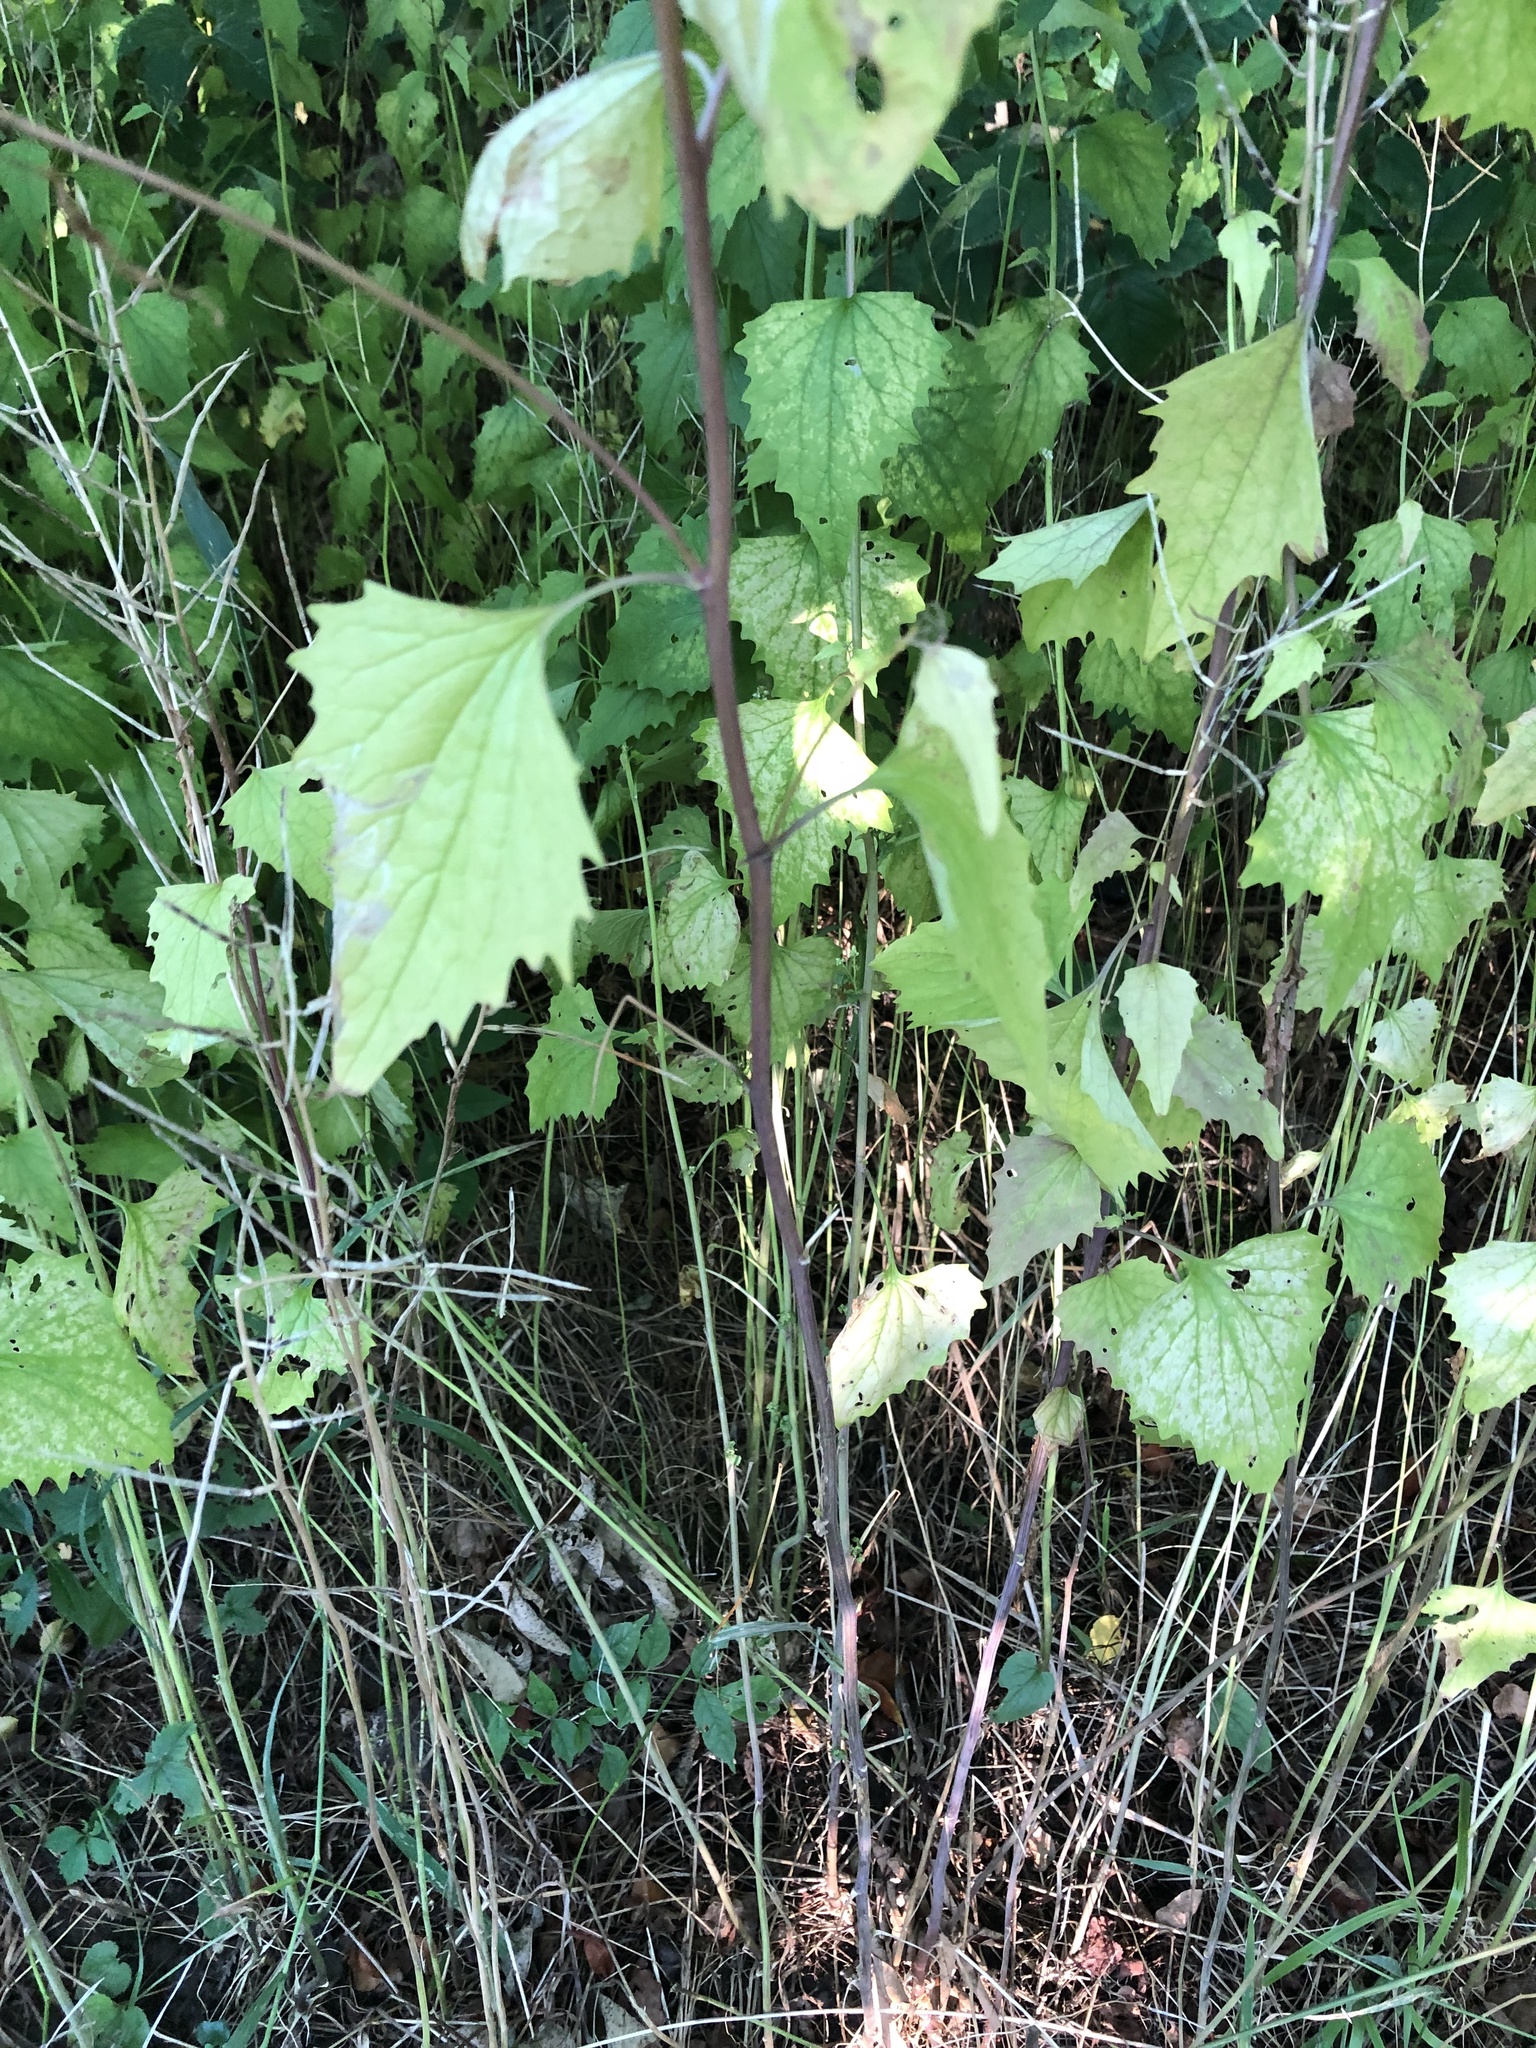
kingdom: Plantae
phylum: Tracheophyta
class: Magnoliopsida
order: Brassicales
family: Brassicaceae
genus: Alliaria
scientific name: Alliaria petiolata
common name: Garlic mustard
